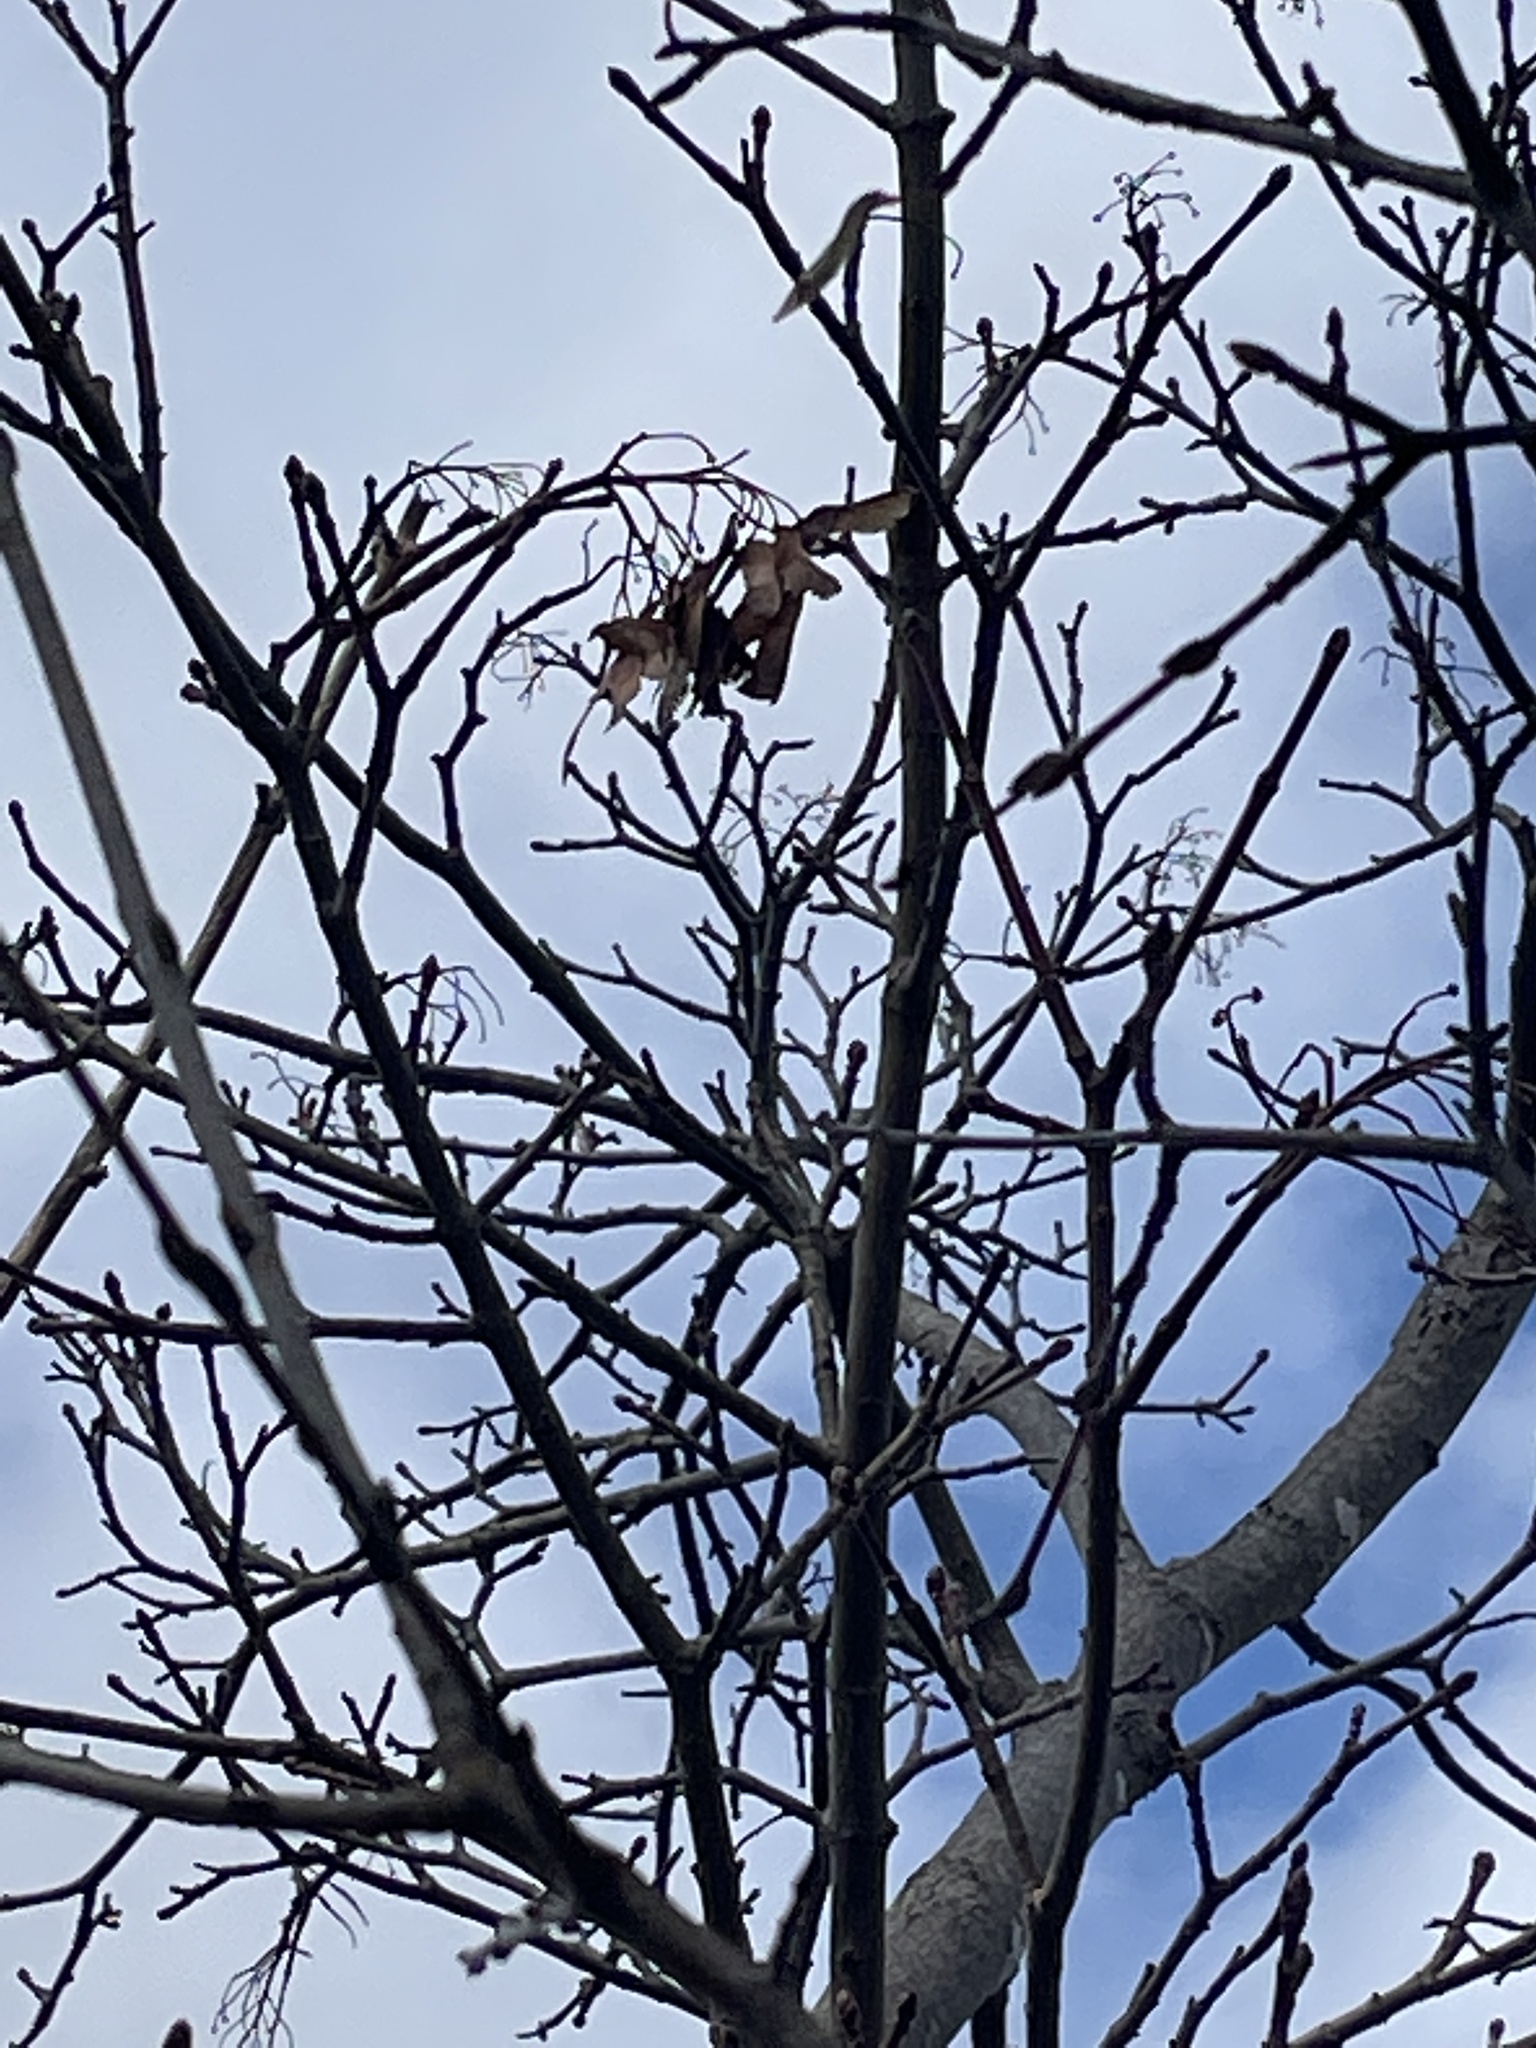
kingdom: Plantae
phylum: Tracheophyta
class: Magnoliopsida
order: Sapindales
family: Sapindaceae
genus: Acer
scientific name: Acer platanoides
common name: Norway maple
